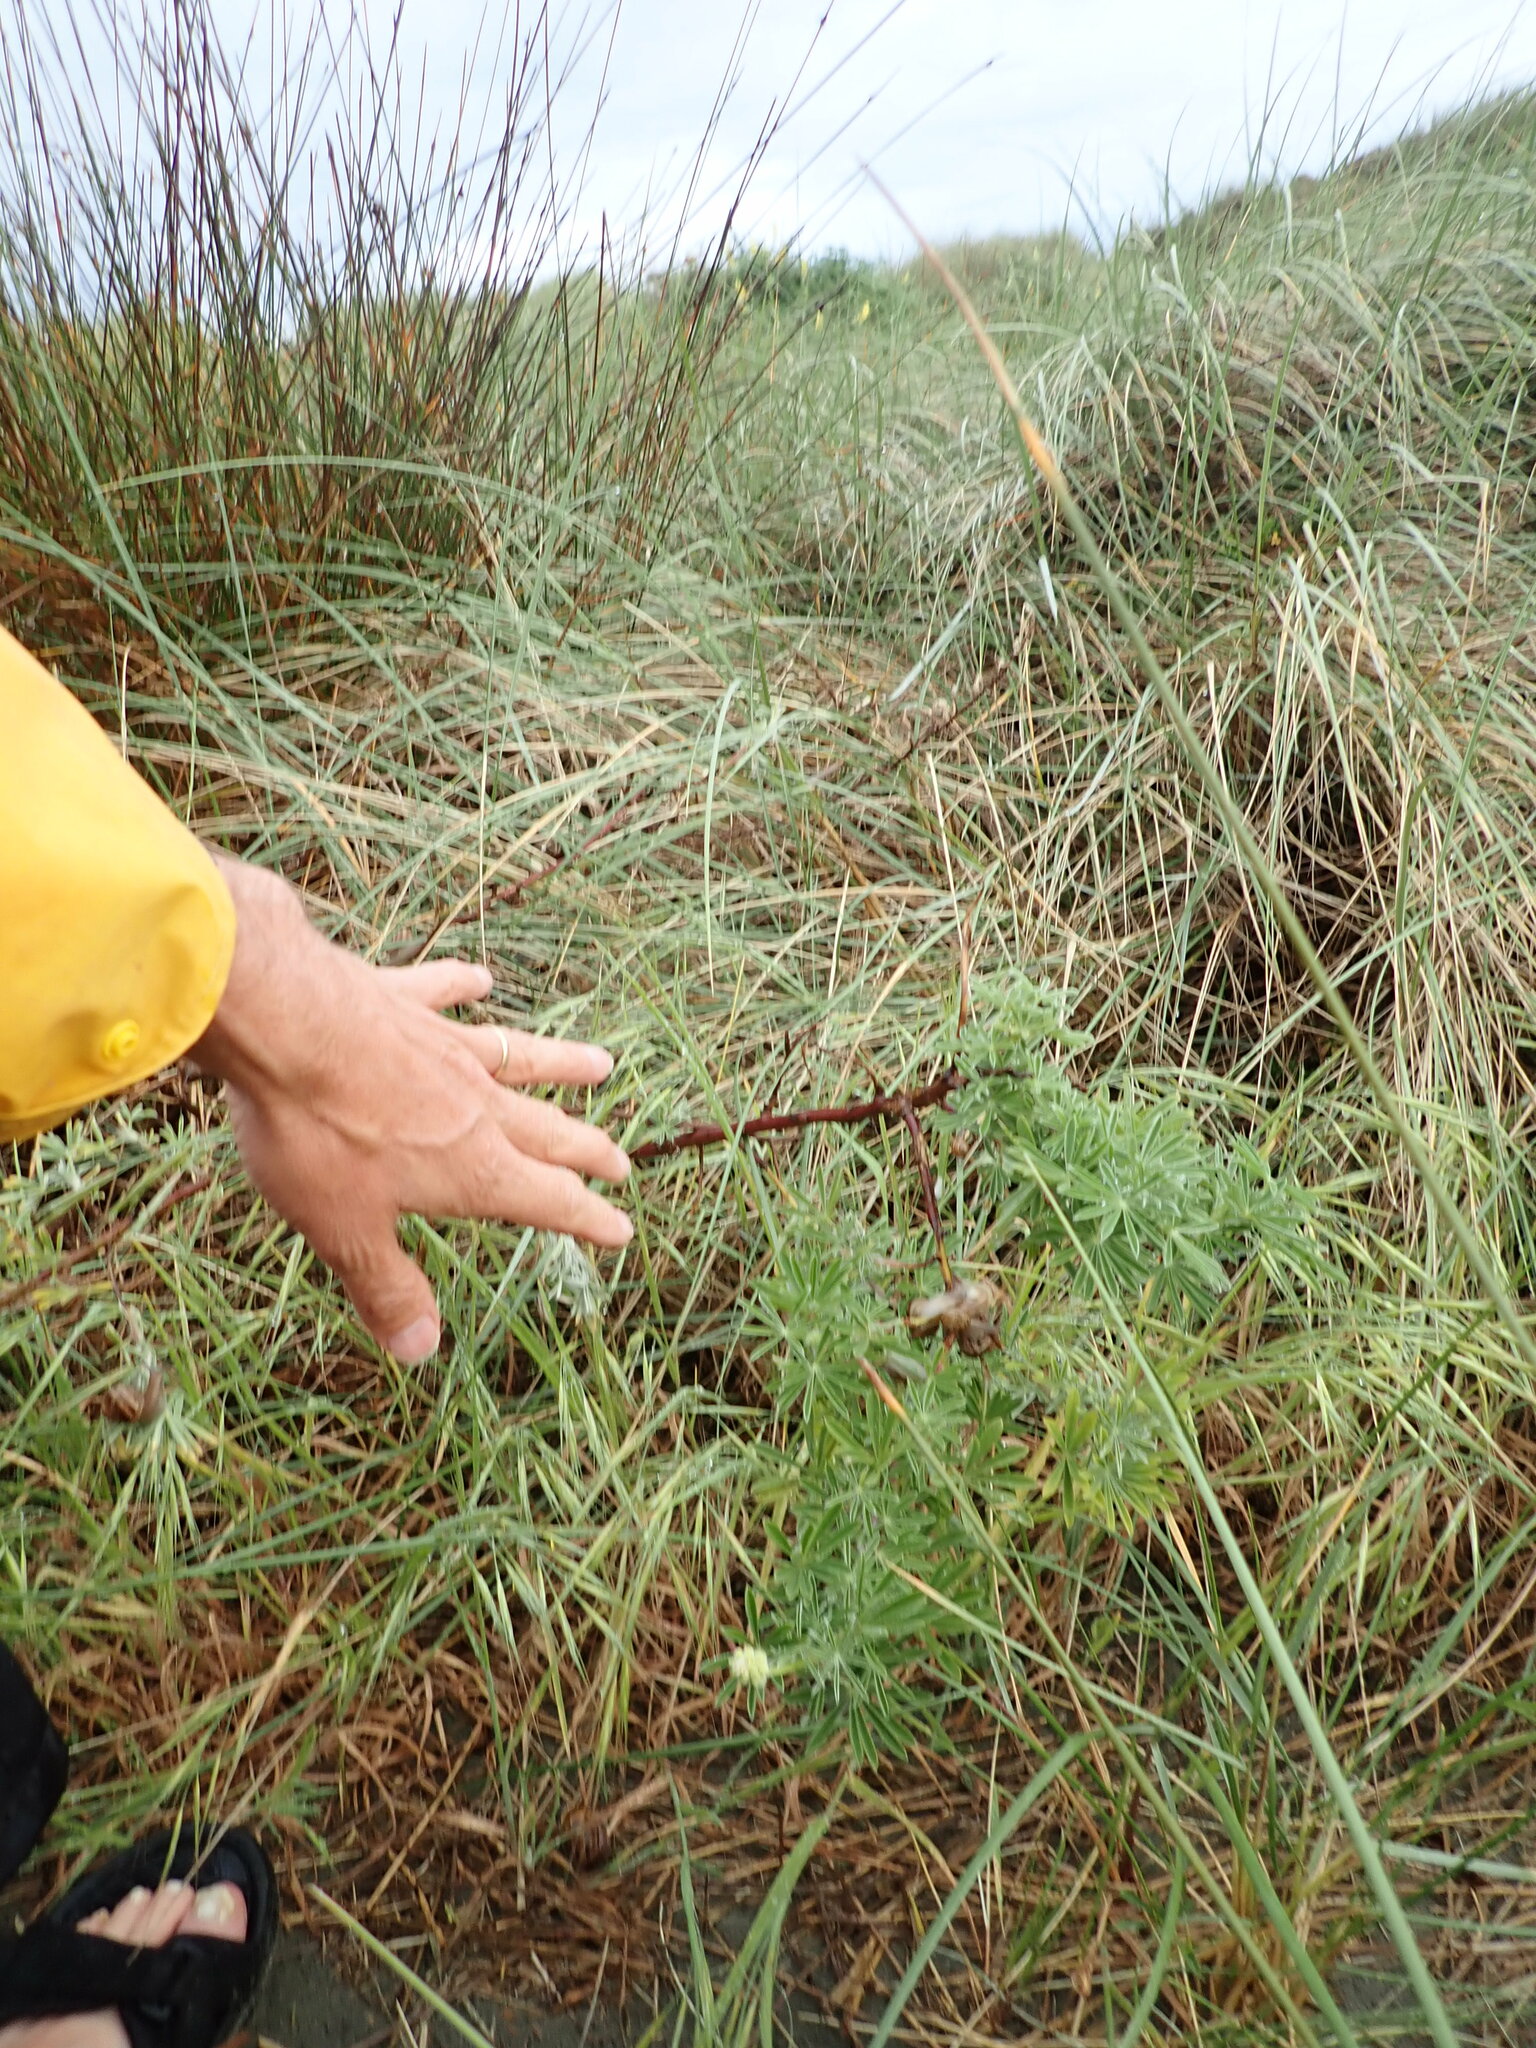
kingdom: Animalia
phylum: Mollusca
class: Gastropoda
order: Stylommatophora
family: Helicidae
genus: Cornu
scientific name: Cornu aspersum
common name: Brown garden snail
